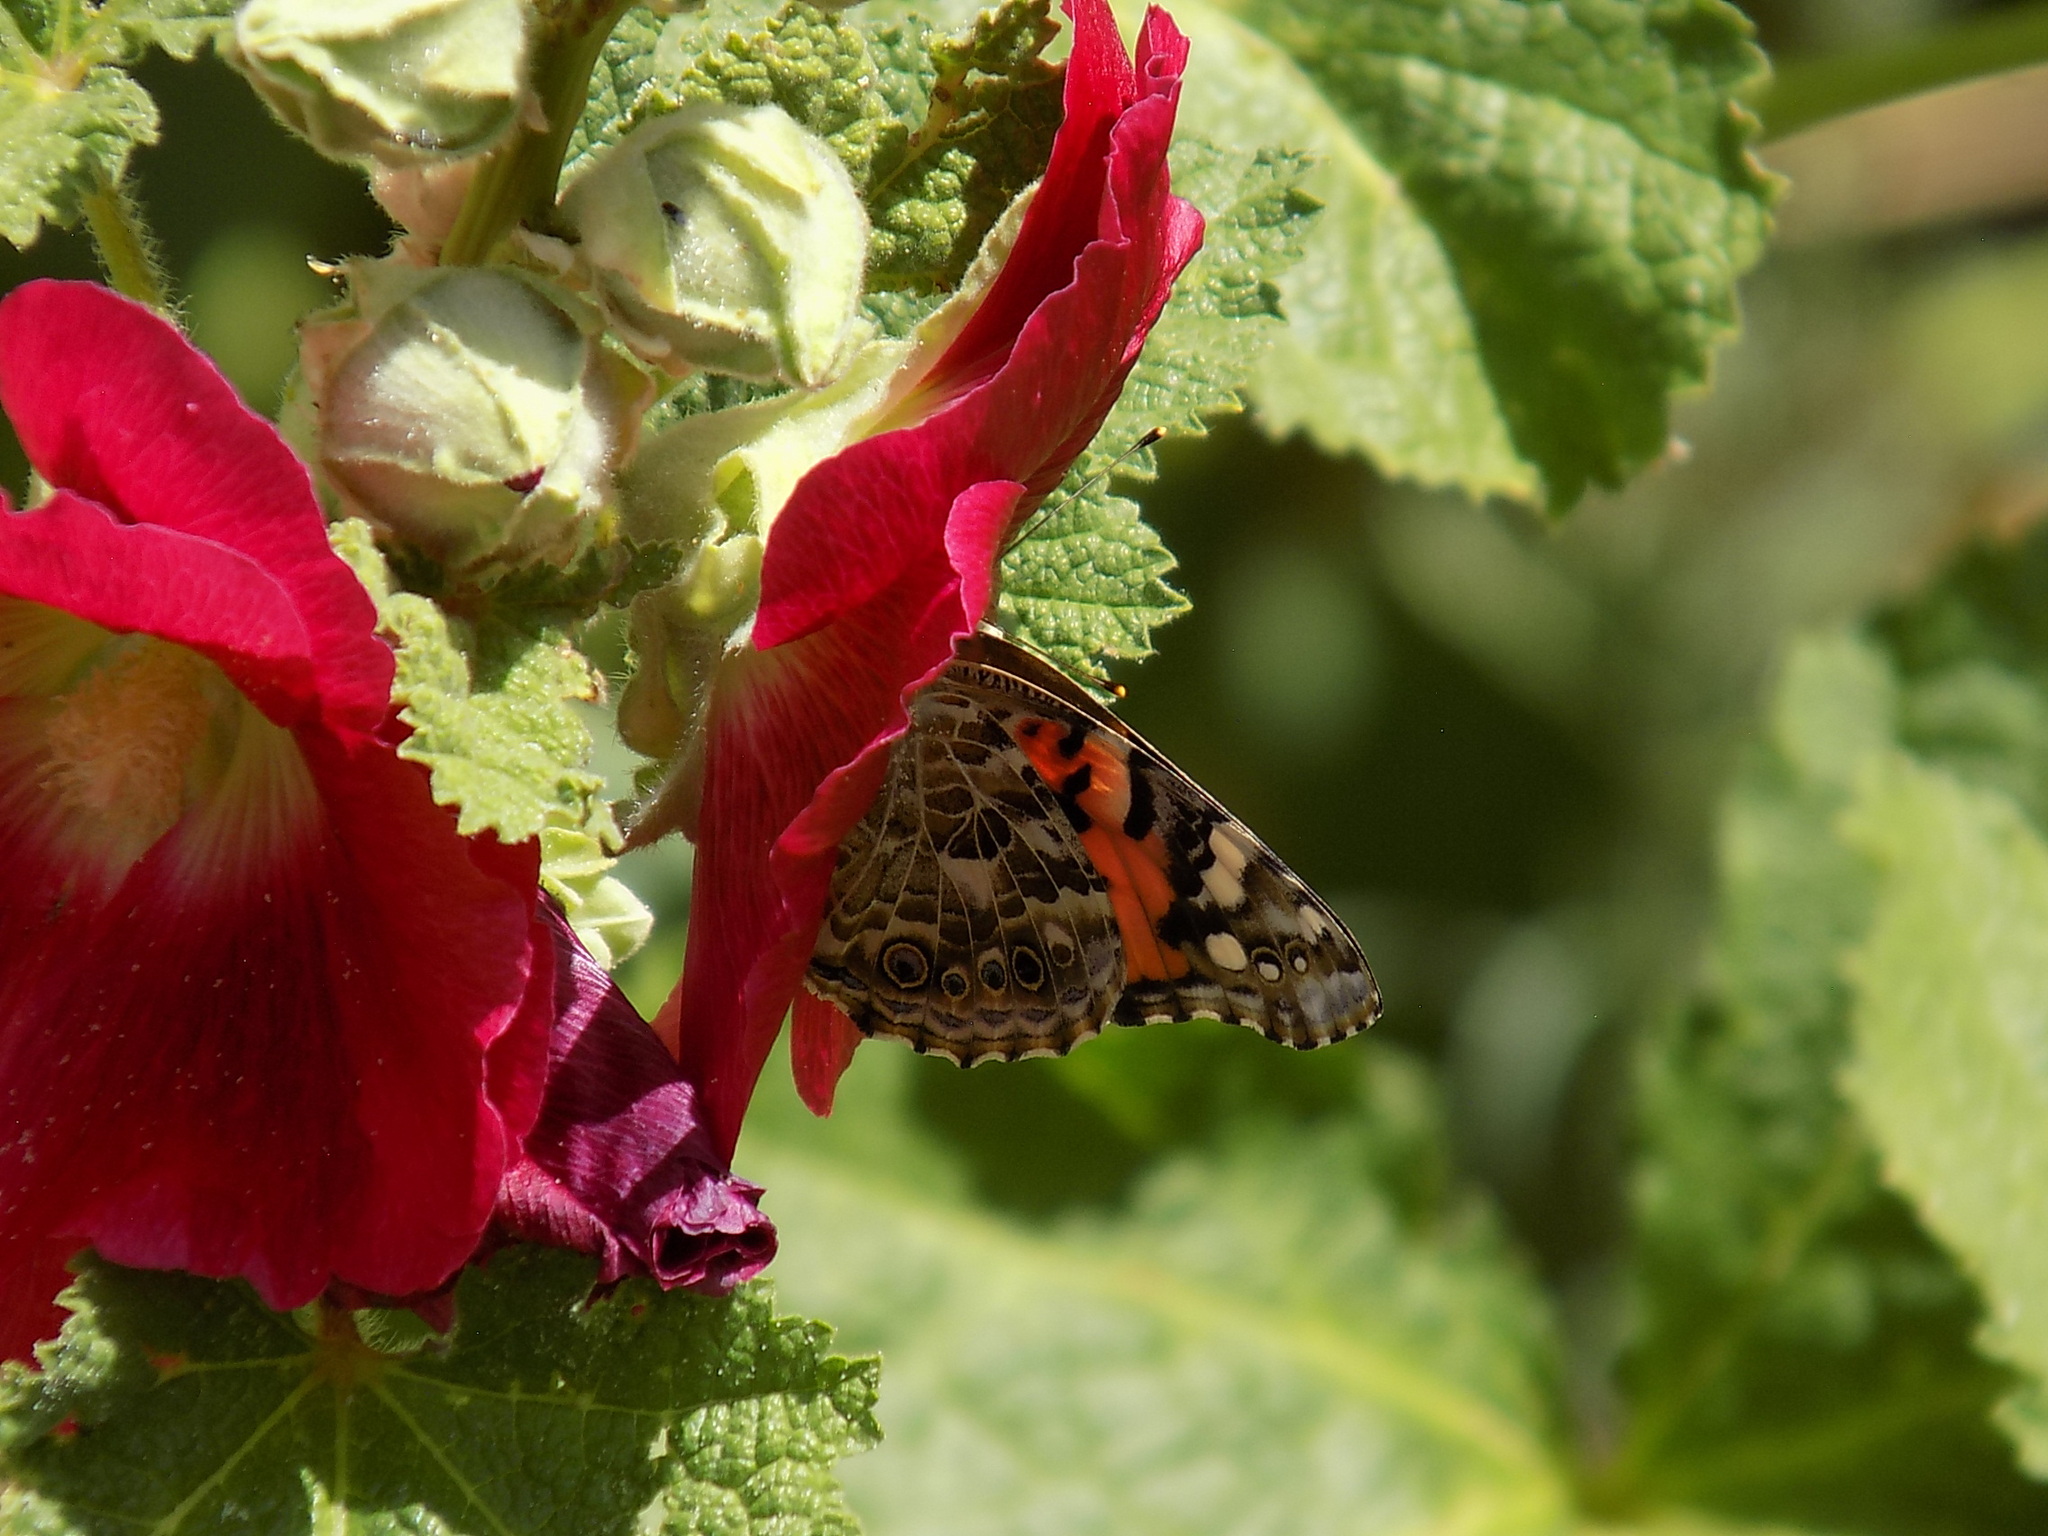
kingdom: Animalia
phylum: Arthropoda
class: Insecta
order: Lepidoptera
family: Nymphalidae
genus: Vanessa
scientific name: Vanessa cardui
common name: Painted lady
